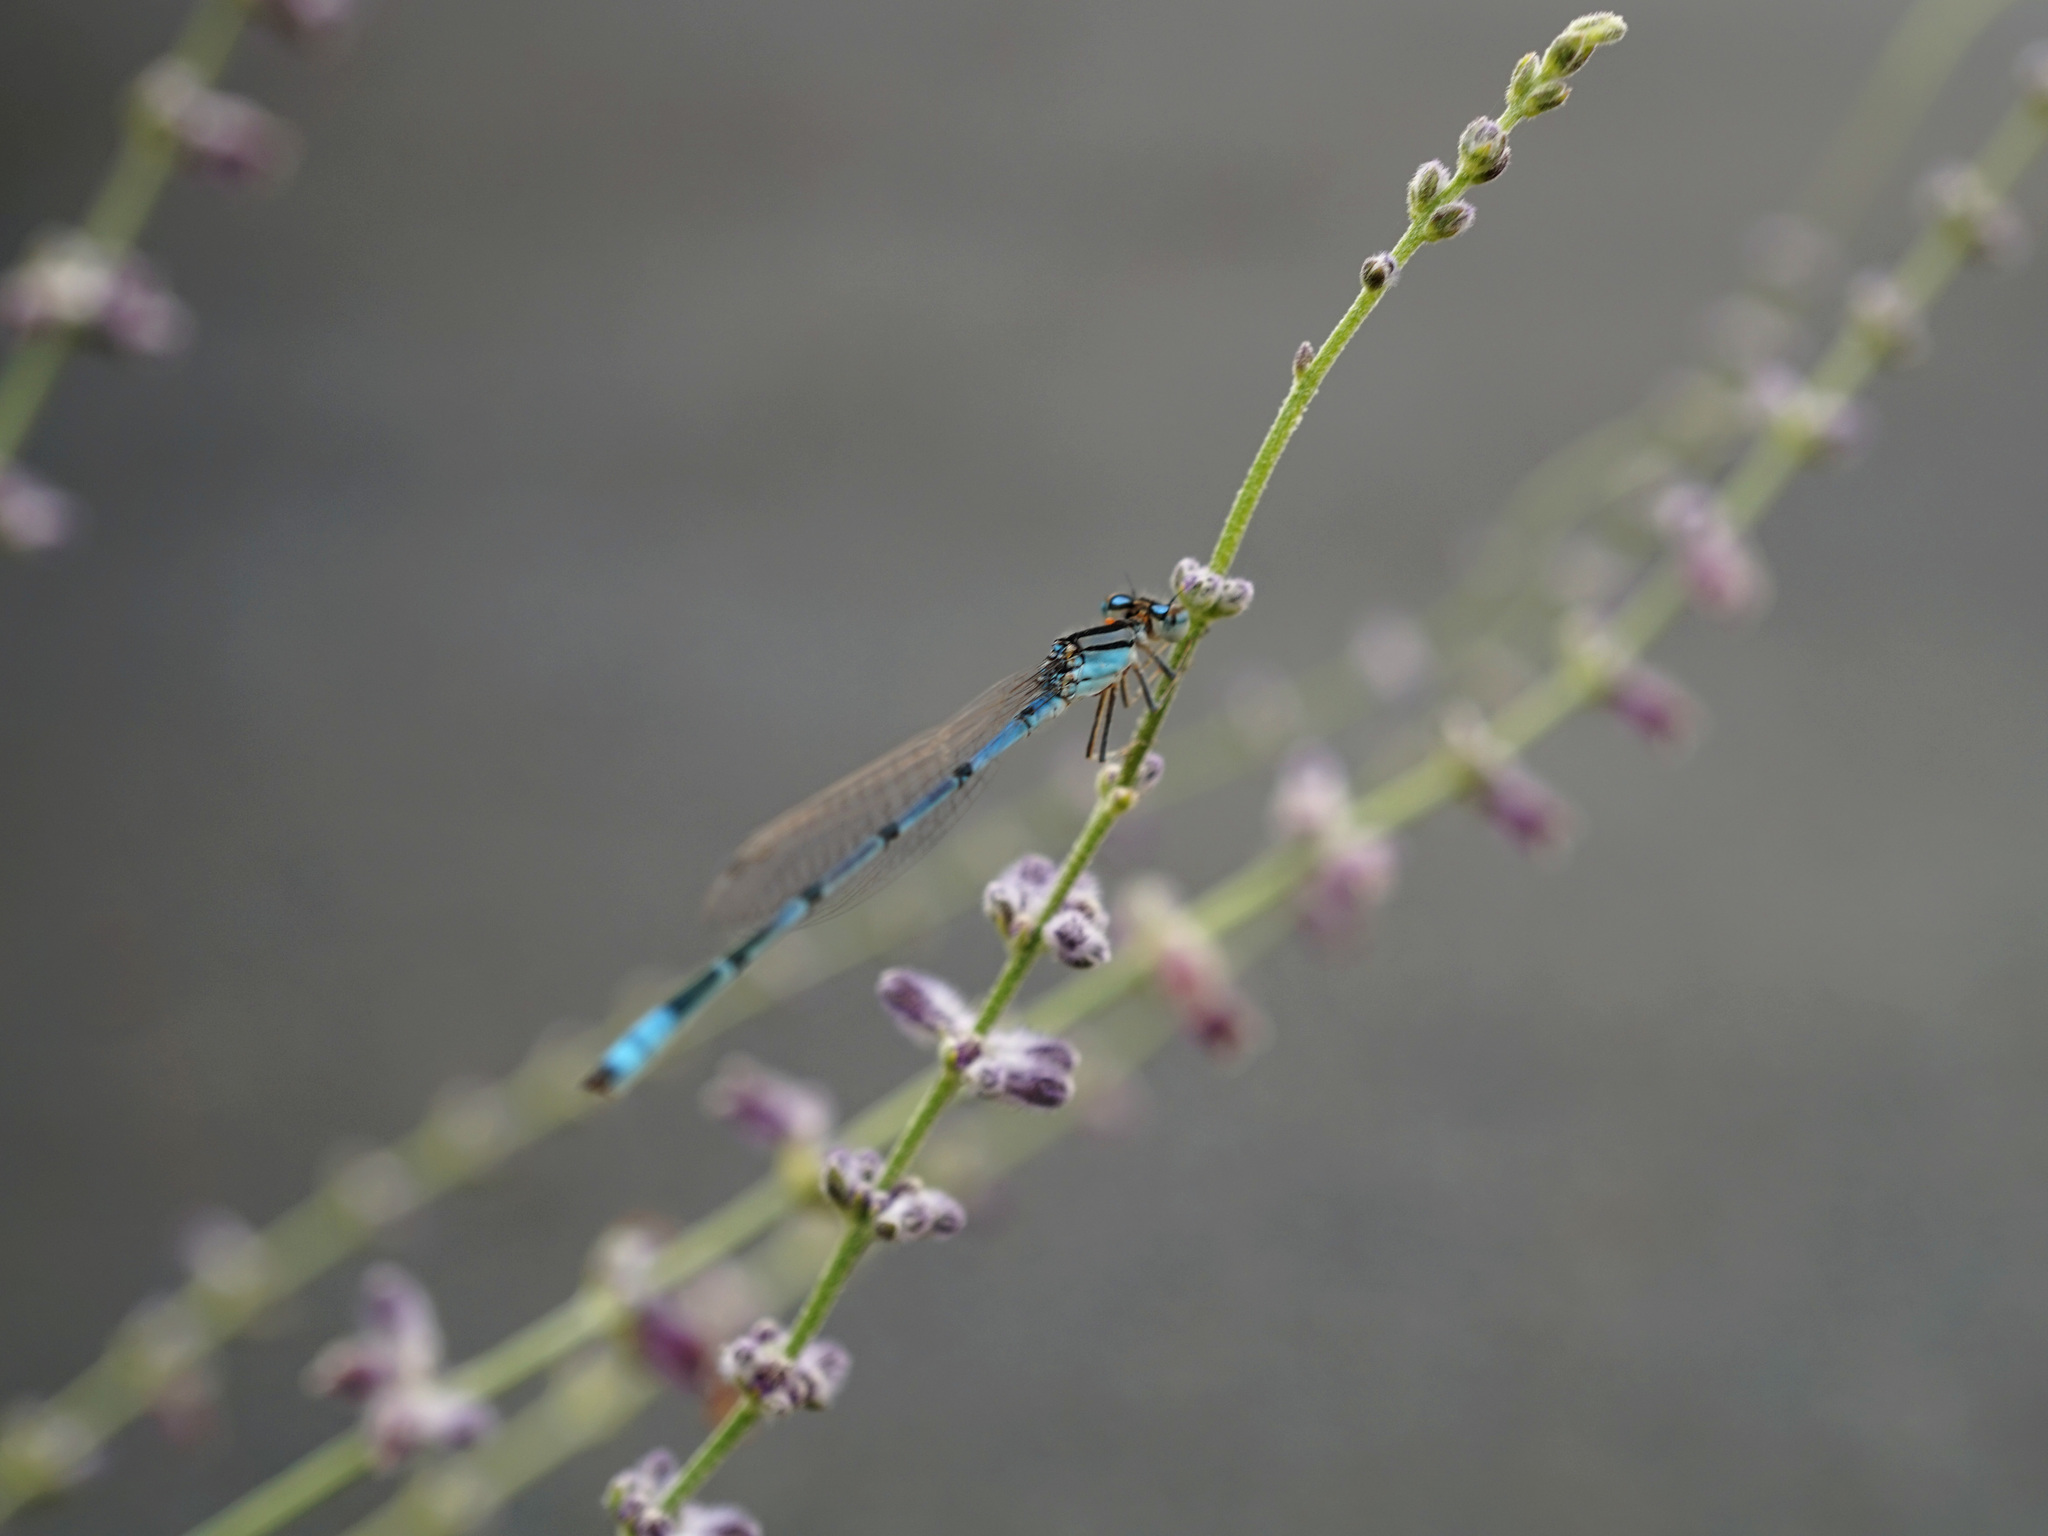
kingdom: Animalia
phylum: Arthropoda
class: Insecta
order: Odonata
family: Coenagrionidae
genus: Enallagma
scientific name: Enallagma civile
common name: Damselfly
